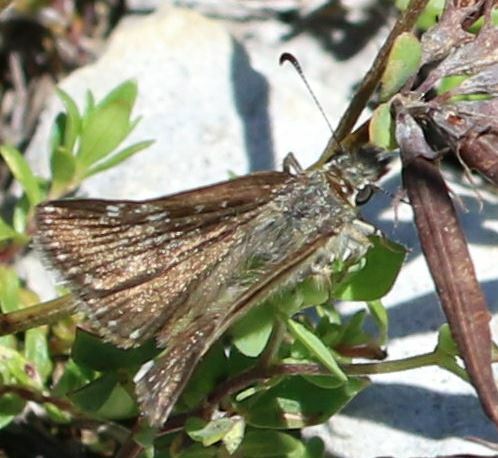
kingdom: Animalia
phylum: Arthropoda
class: Insecta
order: Lepidoptera
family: Hesperiidae
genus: Erynnis
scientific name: Erynnis tages
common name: Dingy skipper
